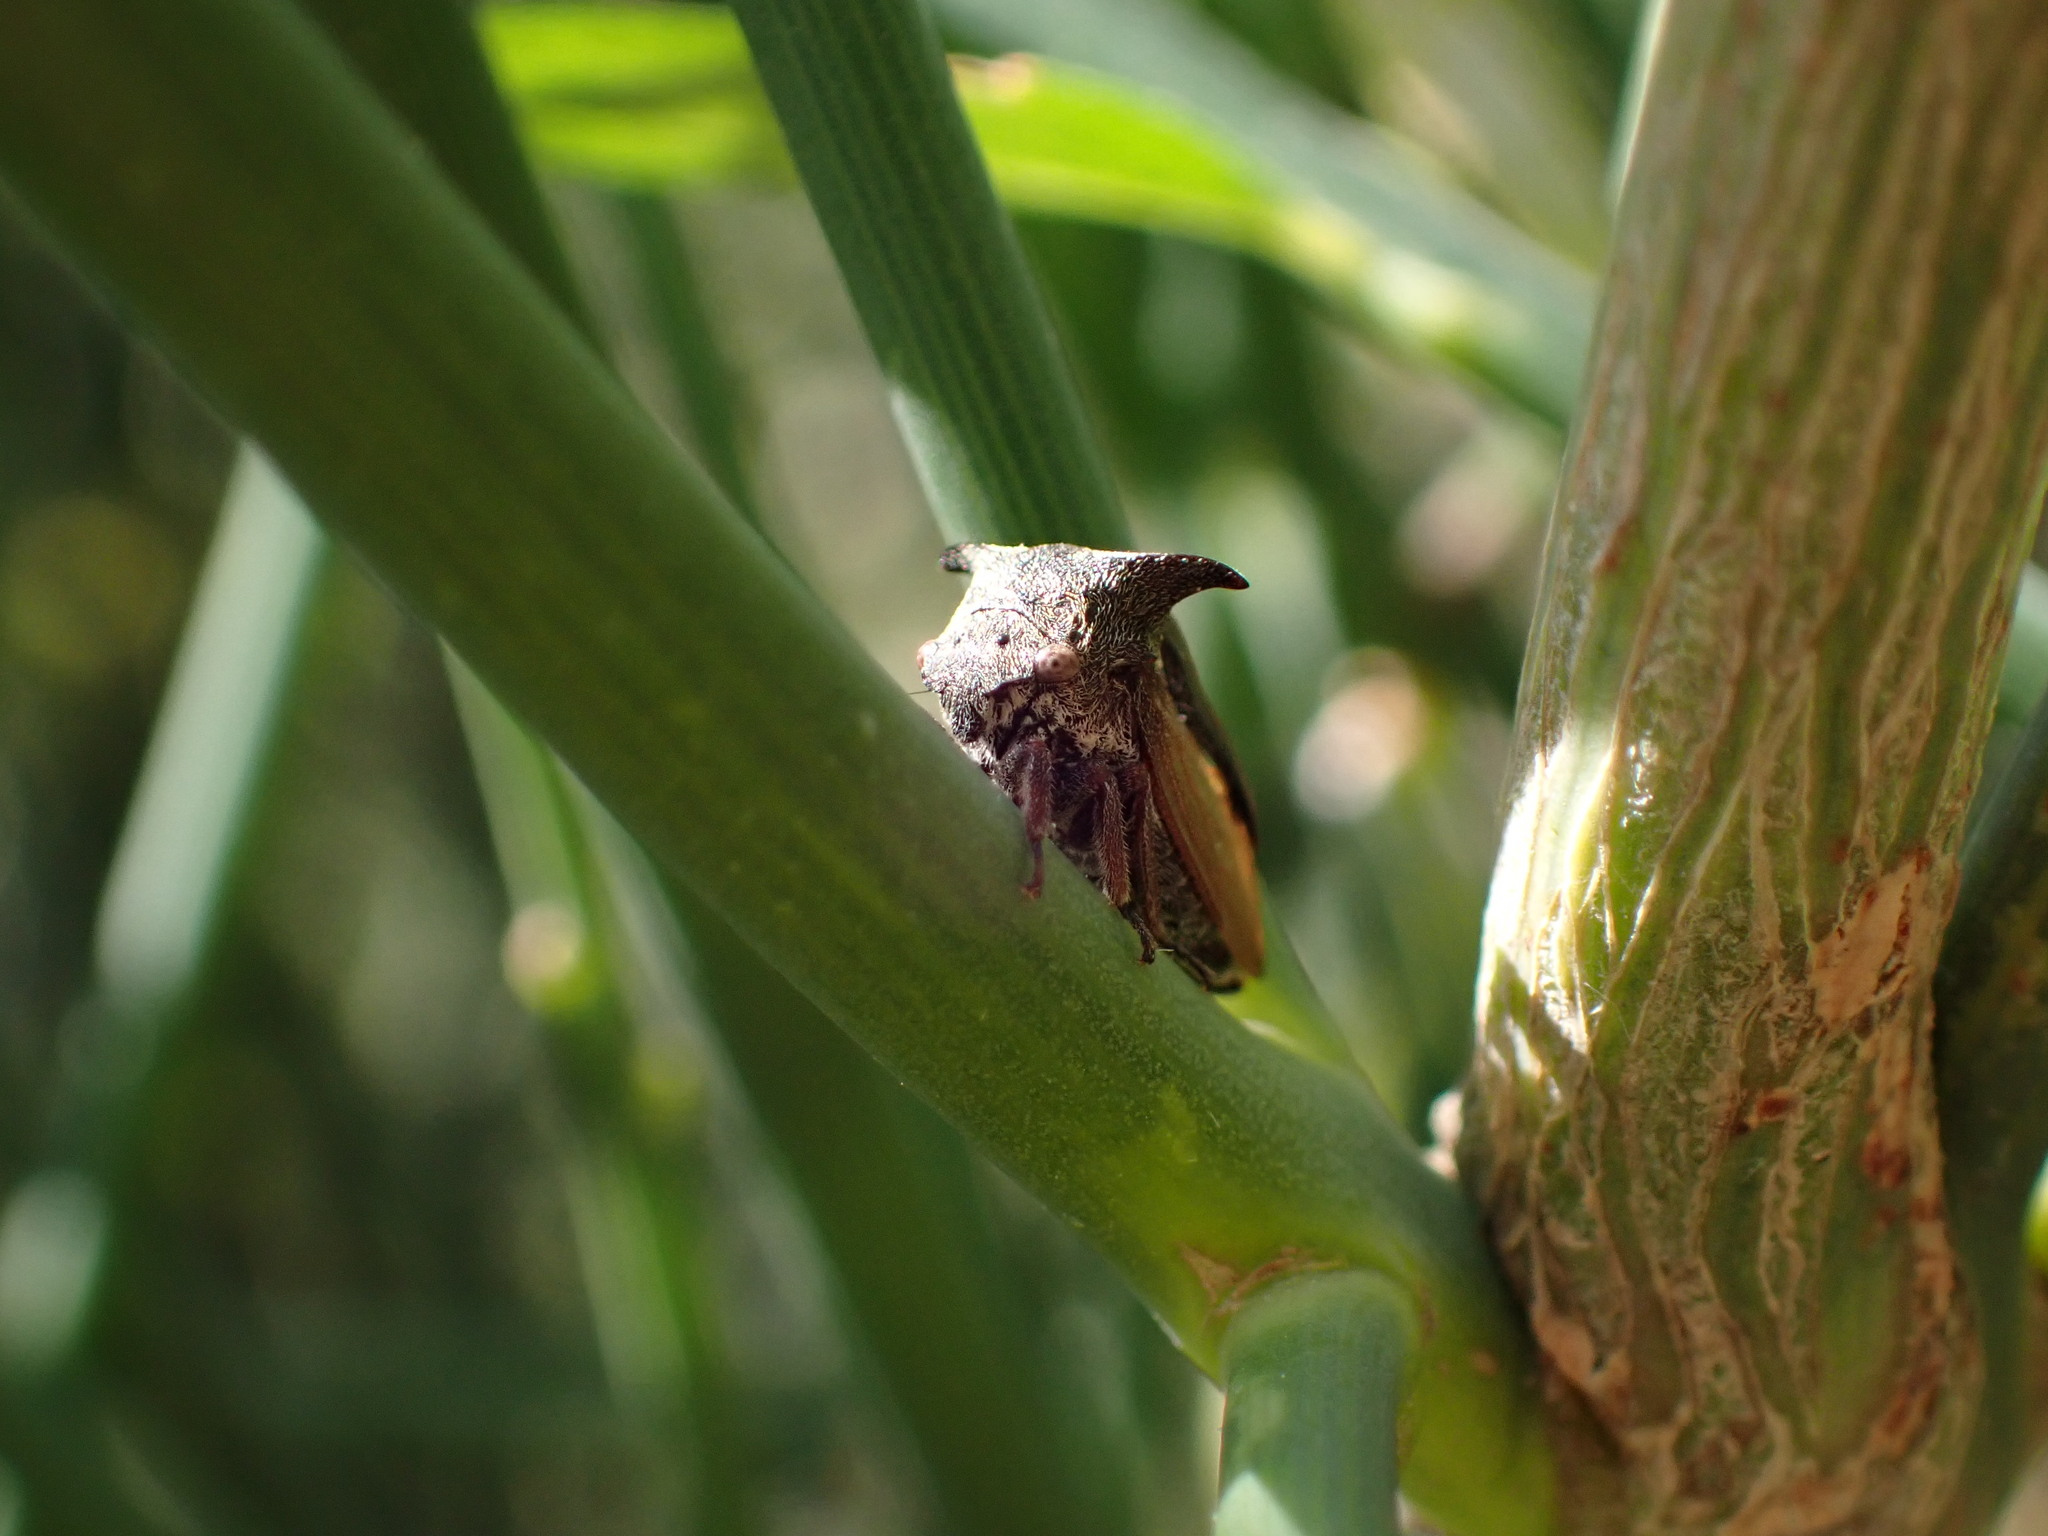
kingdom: Animalia
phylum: Arthropoda
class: Insecta
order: Hemiptera
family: Membracidae
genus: Centrotus
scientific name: Centrotus cornuta
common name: Treehopper
